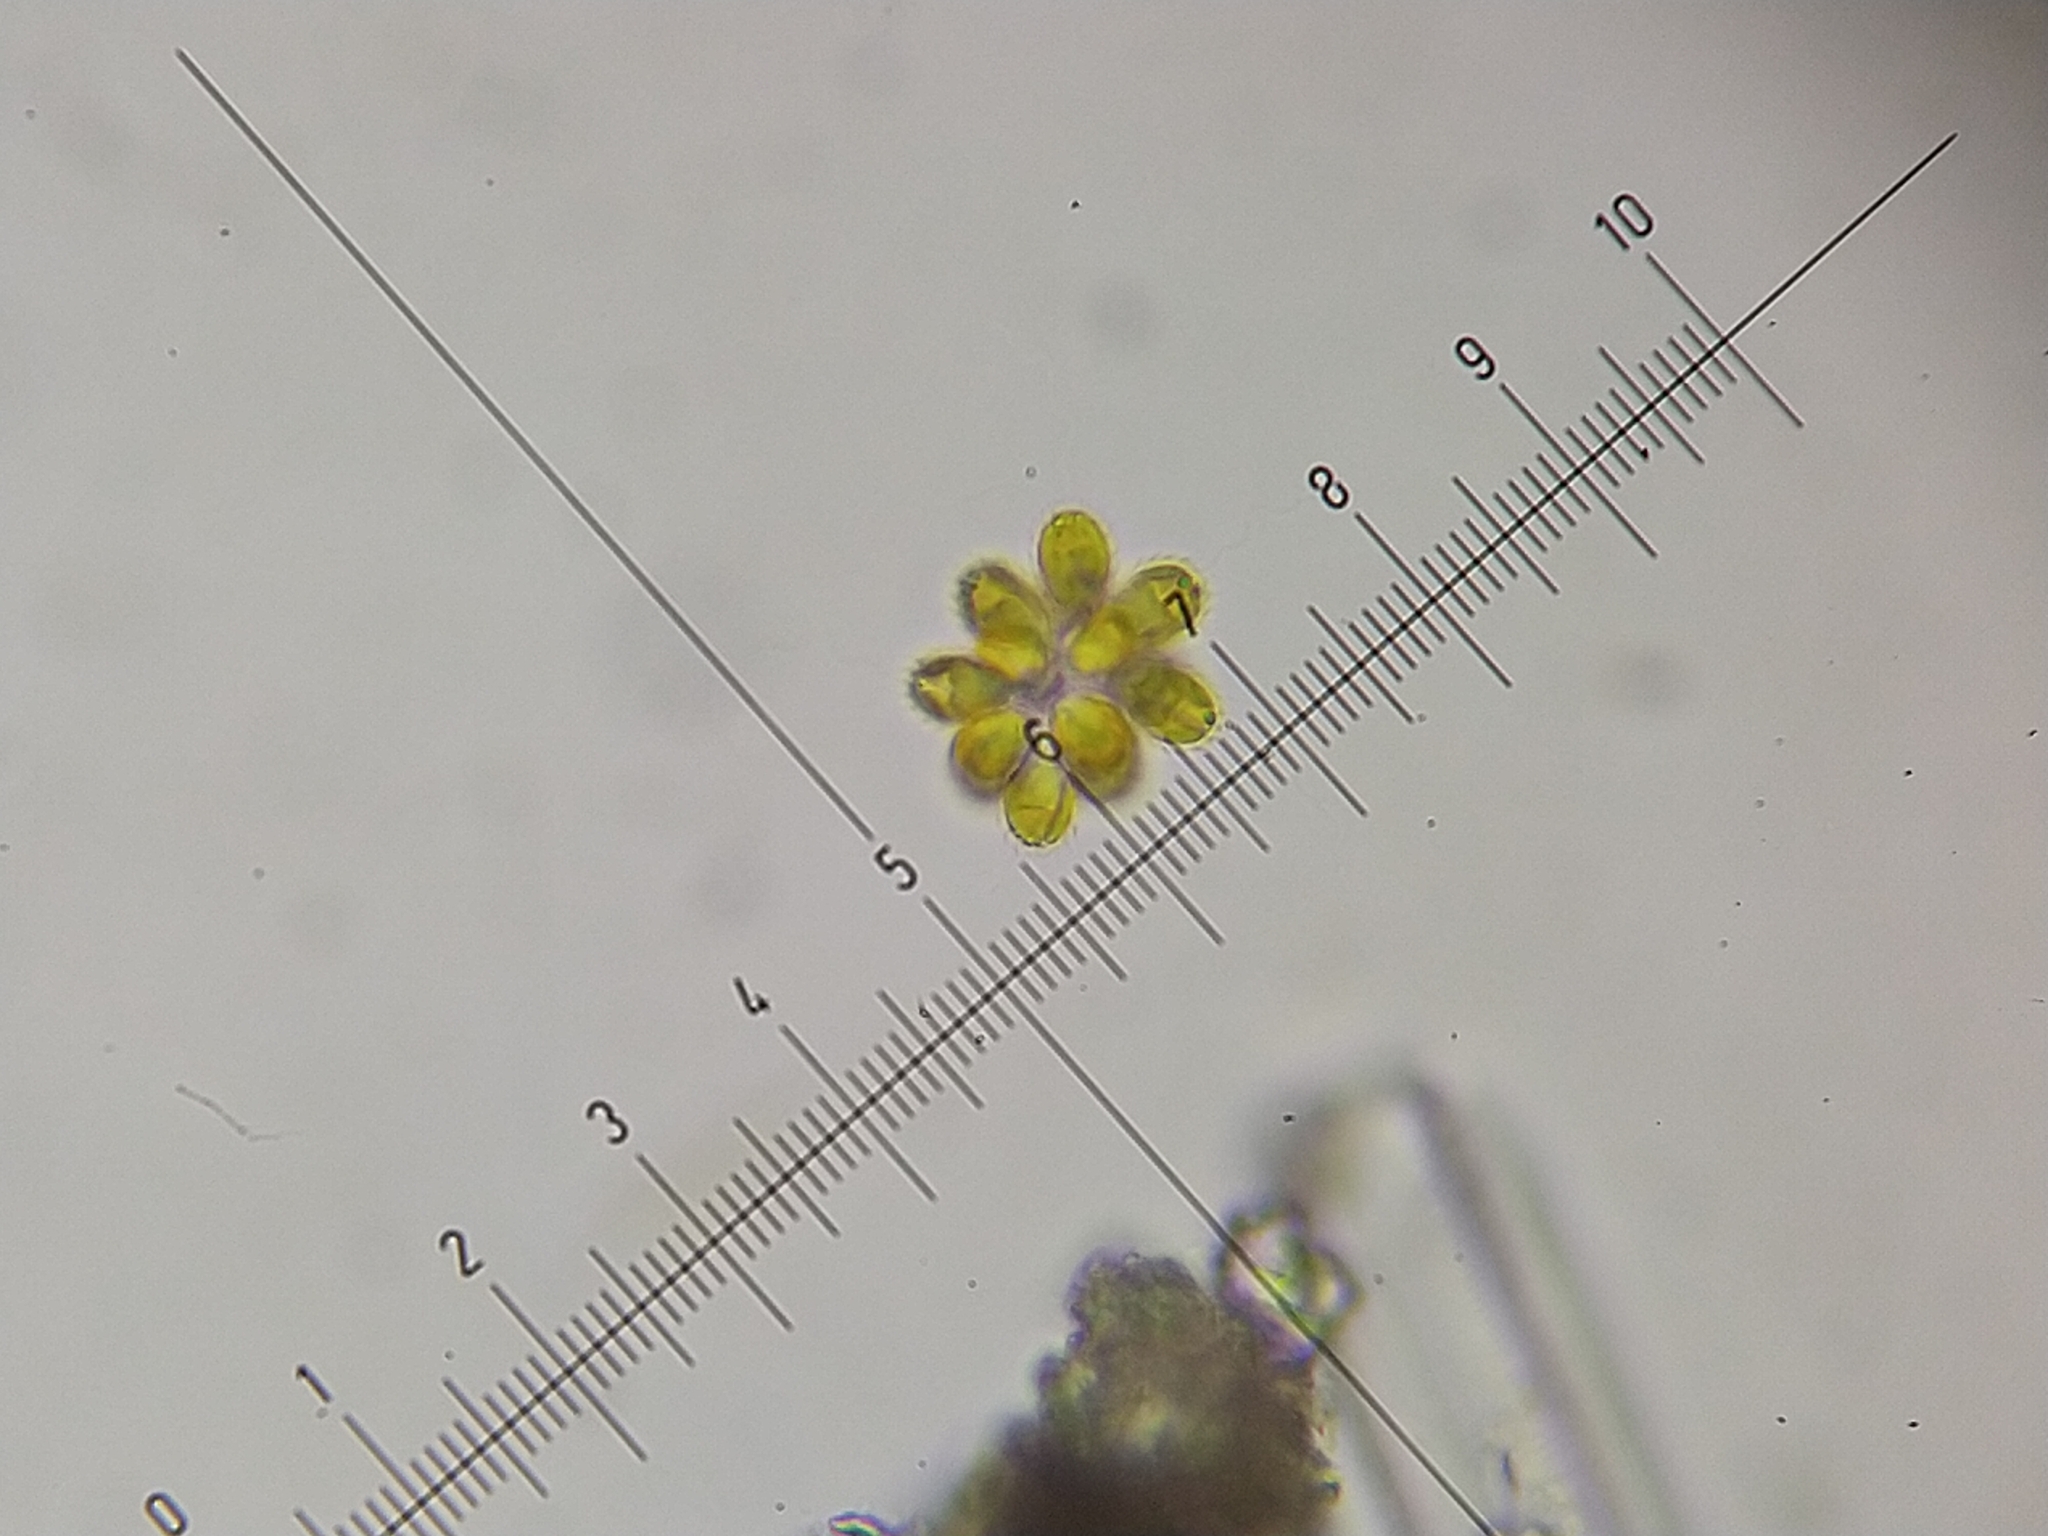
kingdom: Chromista
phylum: Ochrophyta
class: Synurophyceae
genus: Synura
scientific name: Synura
